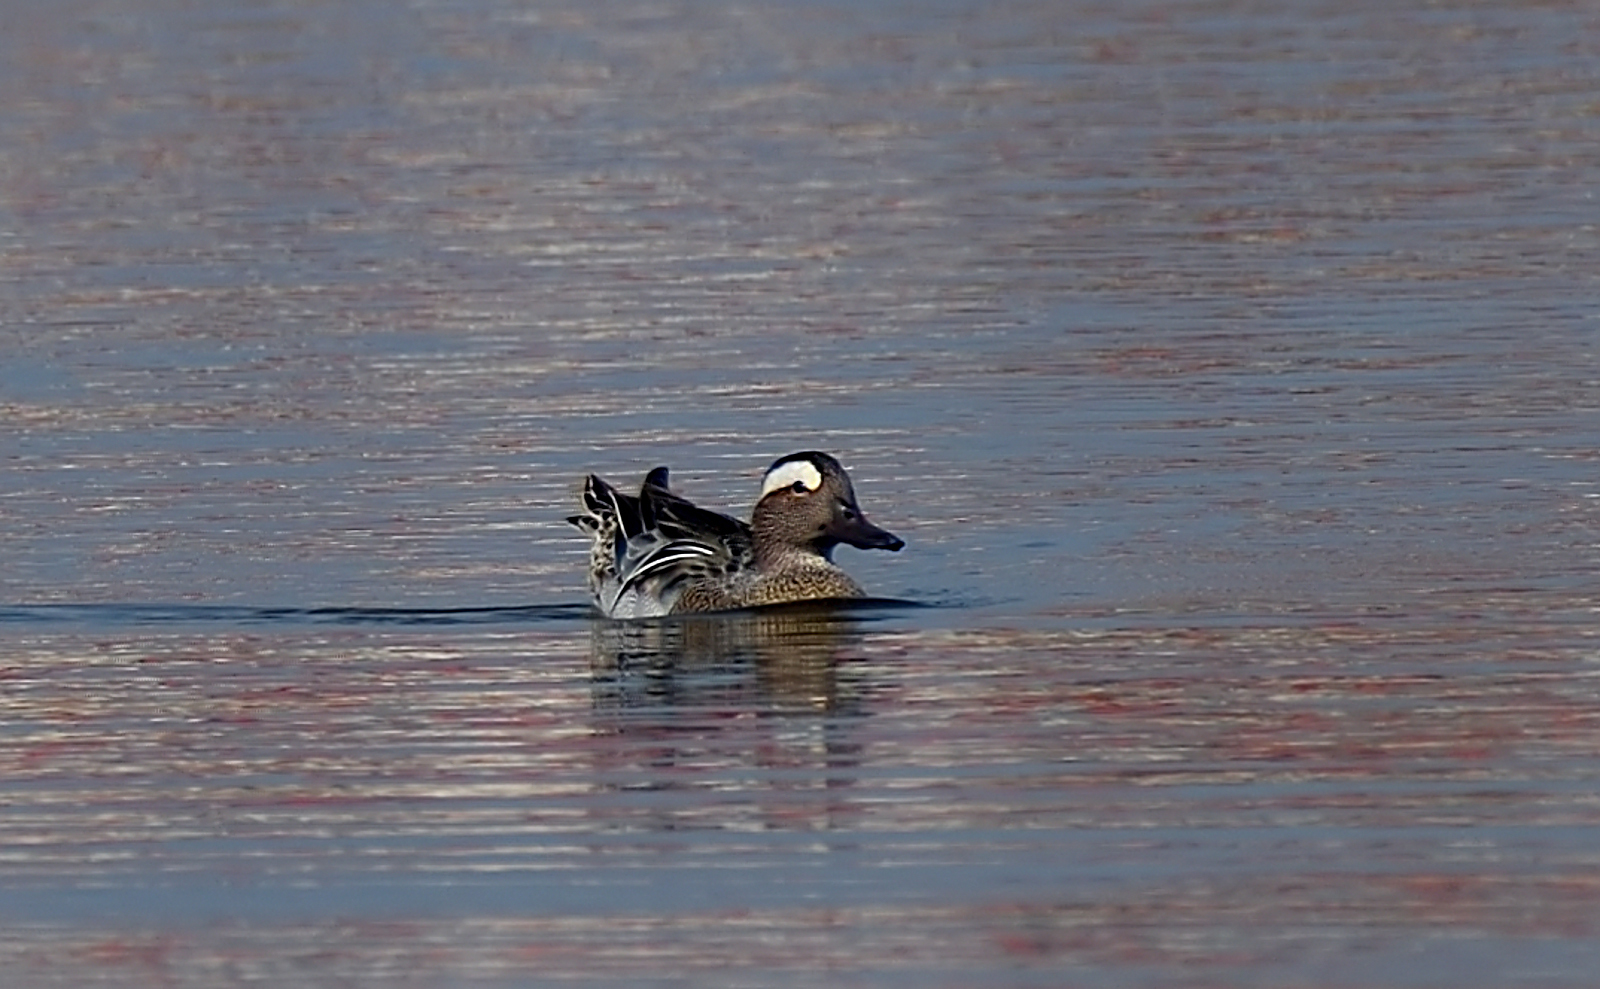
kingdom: Animalia
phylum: Chordata
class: Aves
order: Anseriformes
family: Anatidae
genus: Spatula
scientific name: Spatula querquedula
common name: Garganey
